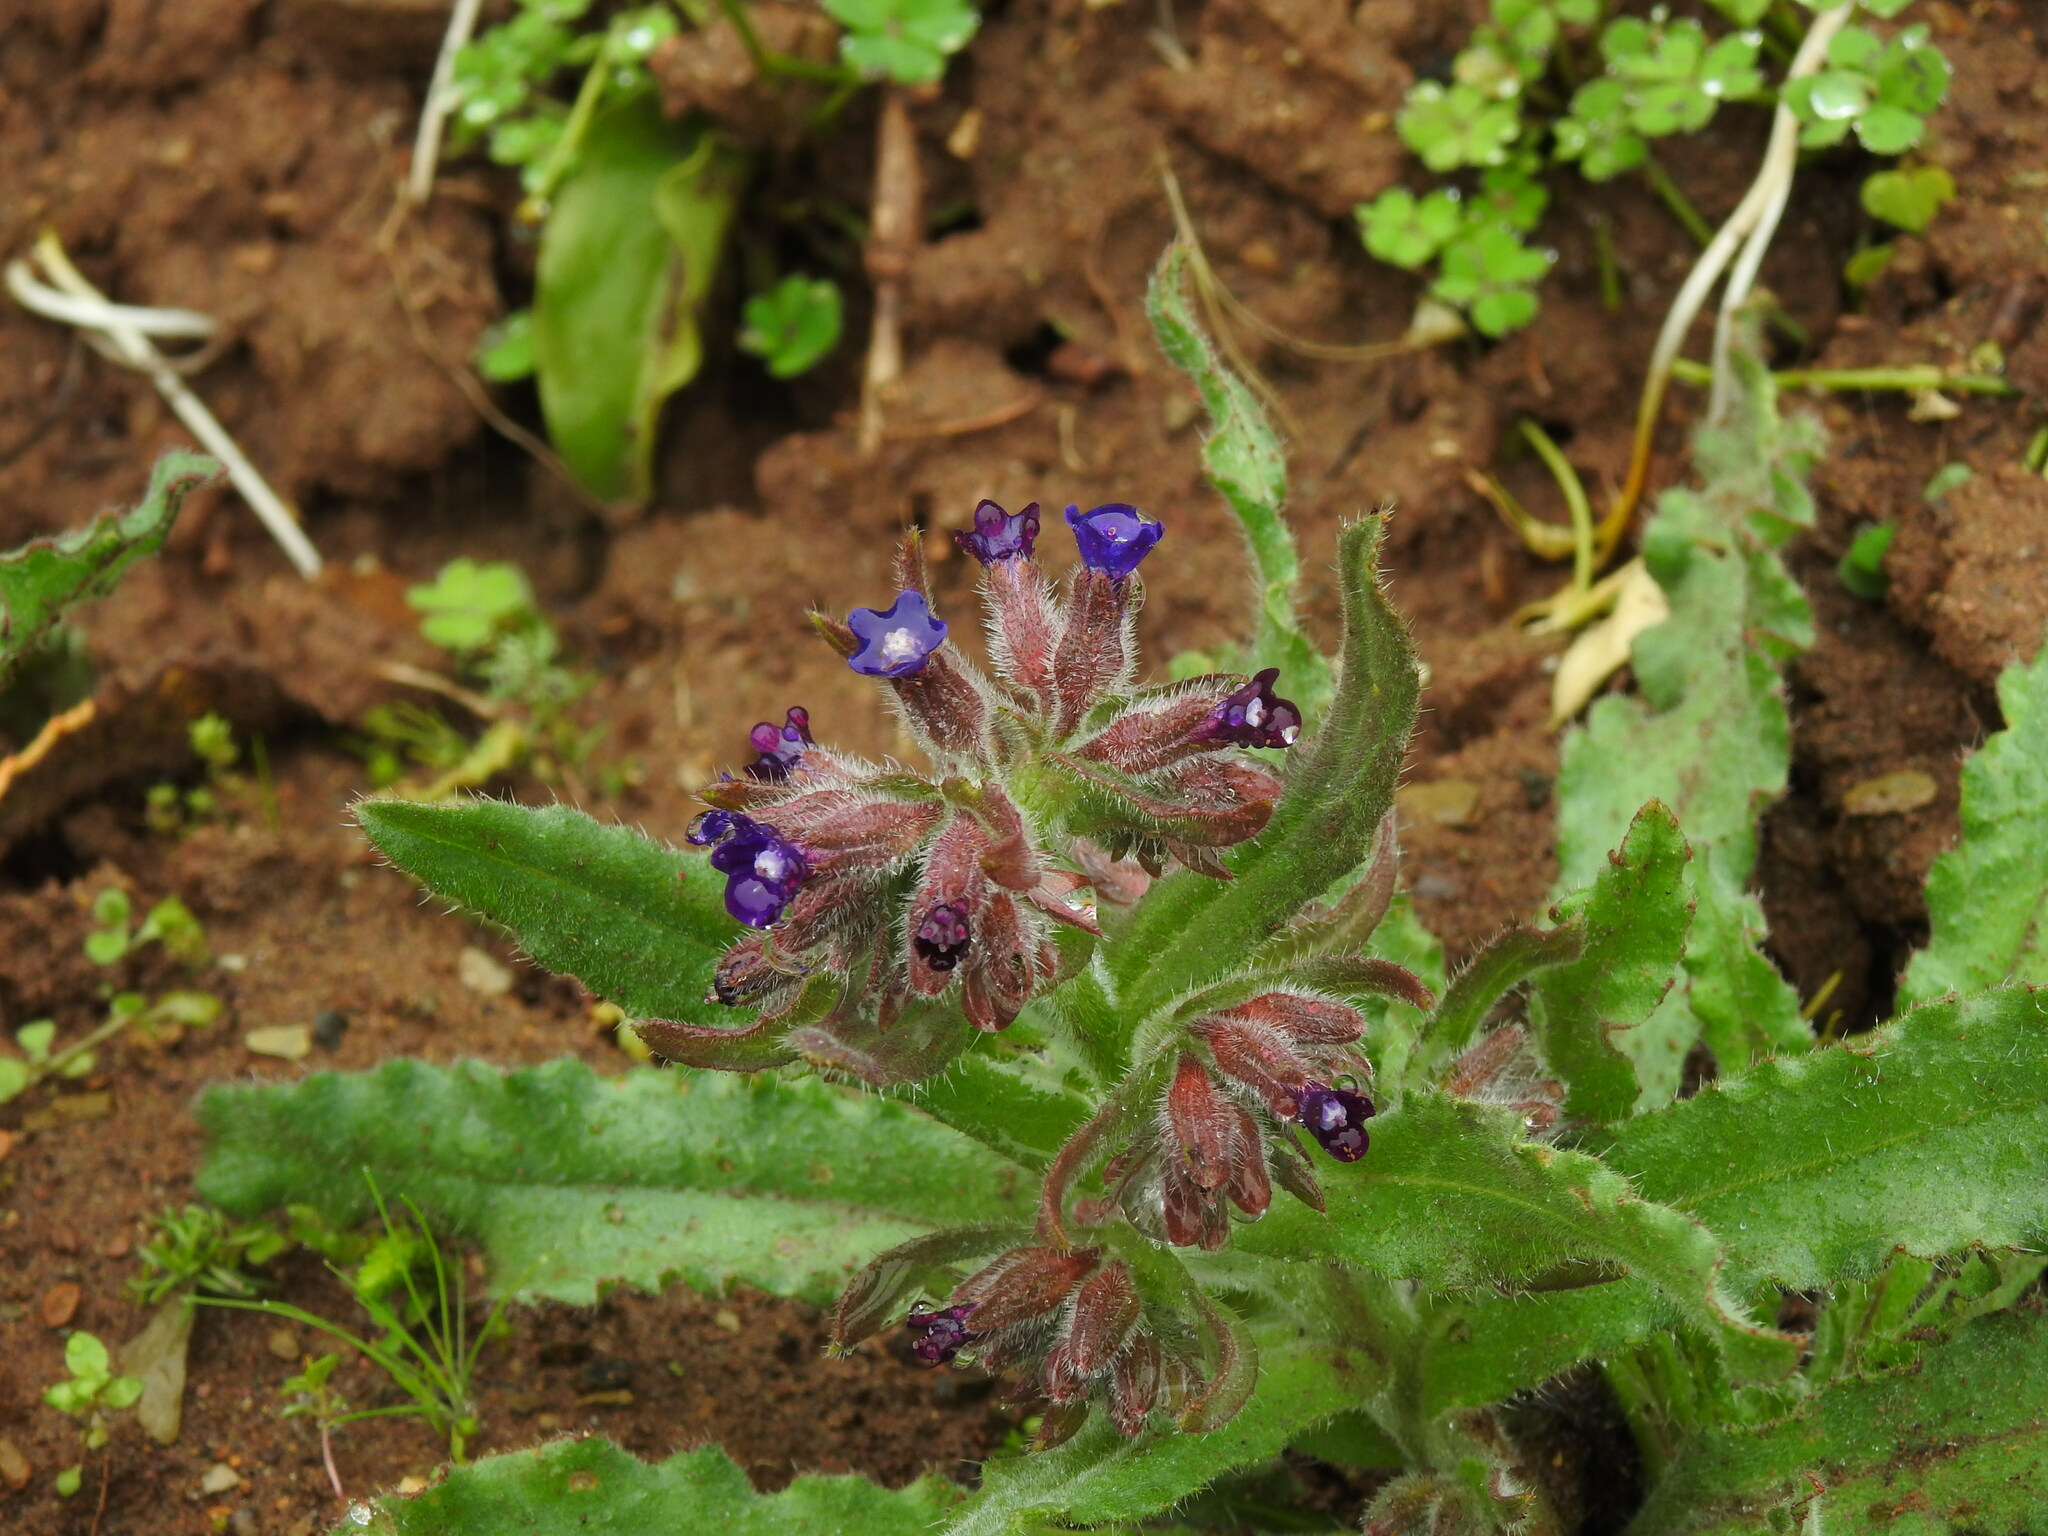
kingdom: Plantae
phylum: Tracheophyta
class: Magnoliopsida
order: Boraginales
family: Boraginaceae
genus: Anchusa
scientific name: Anchusa undulata
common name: Undulate alkanet
